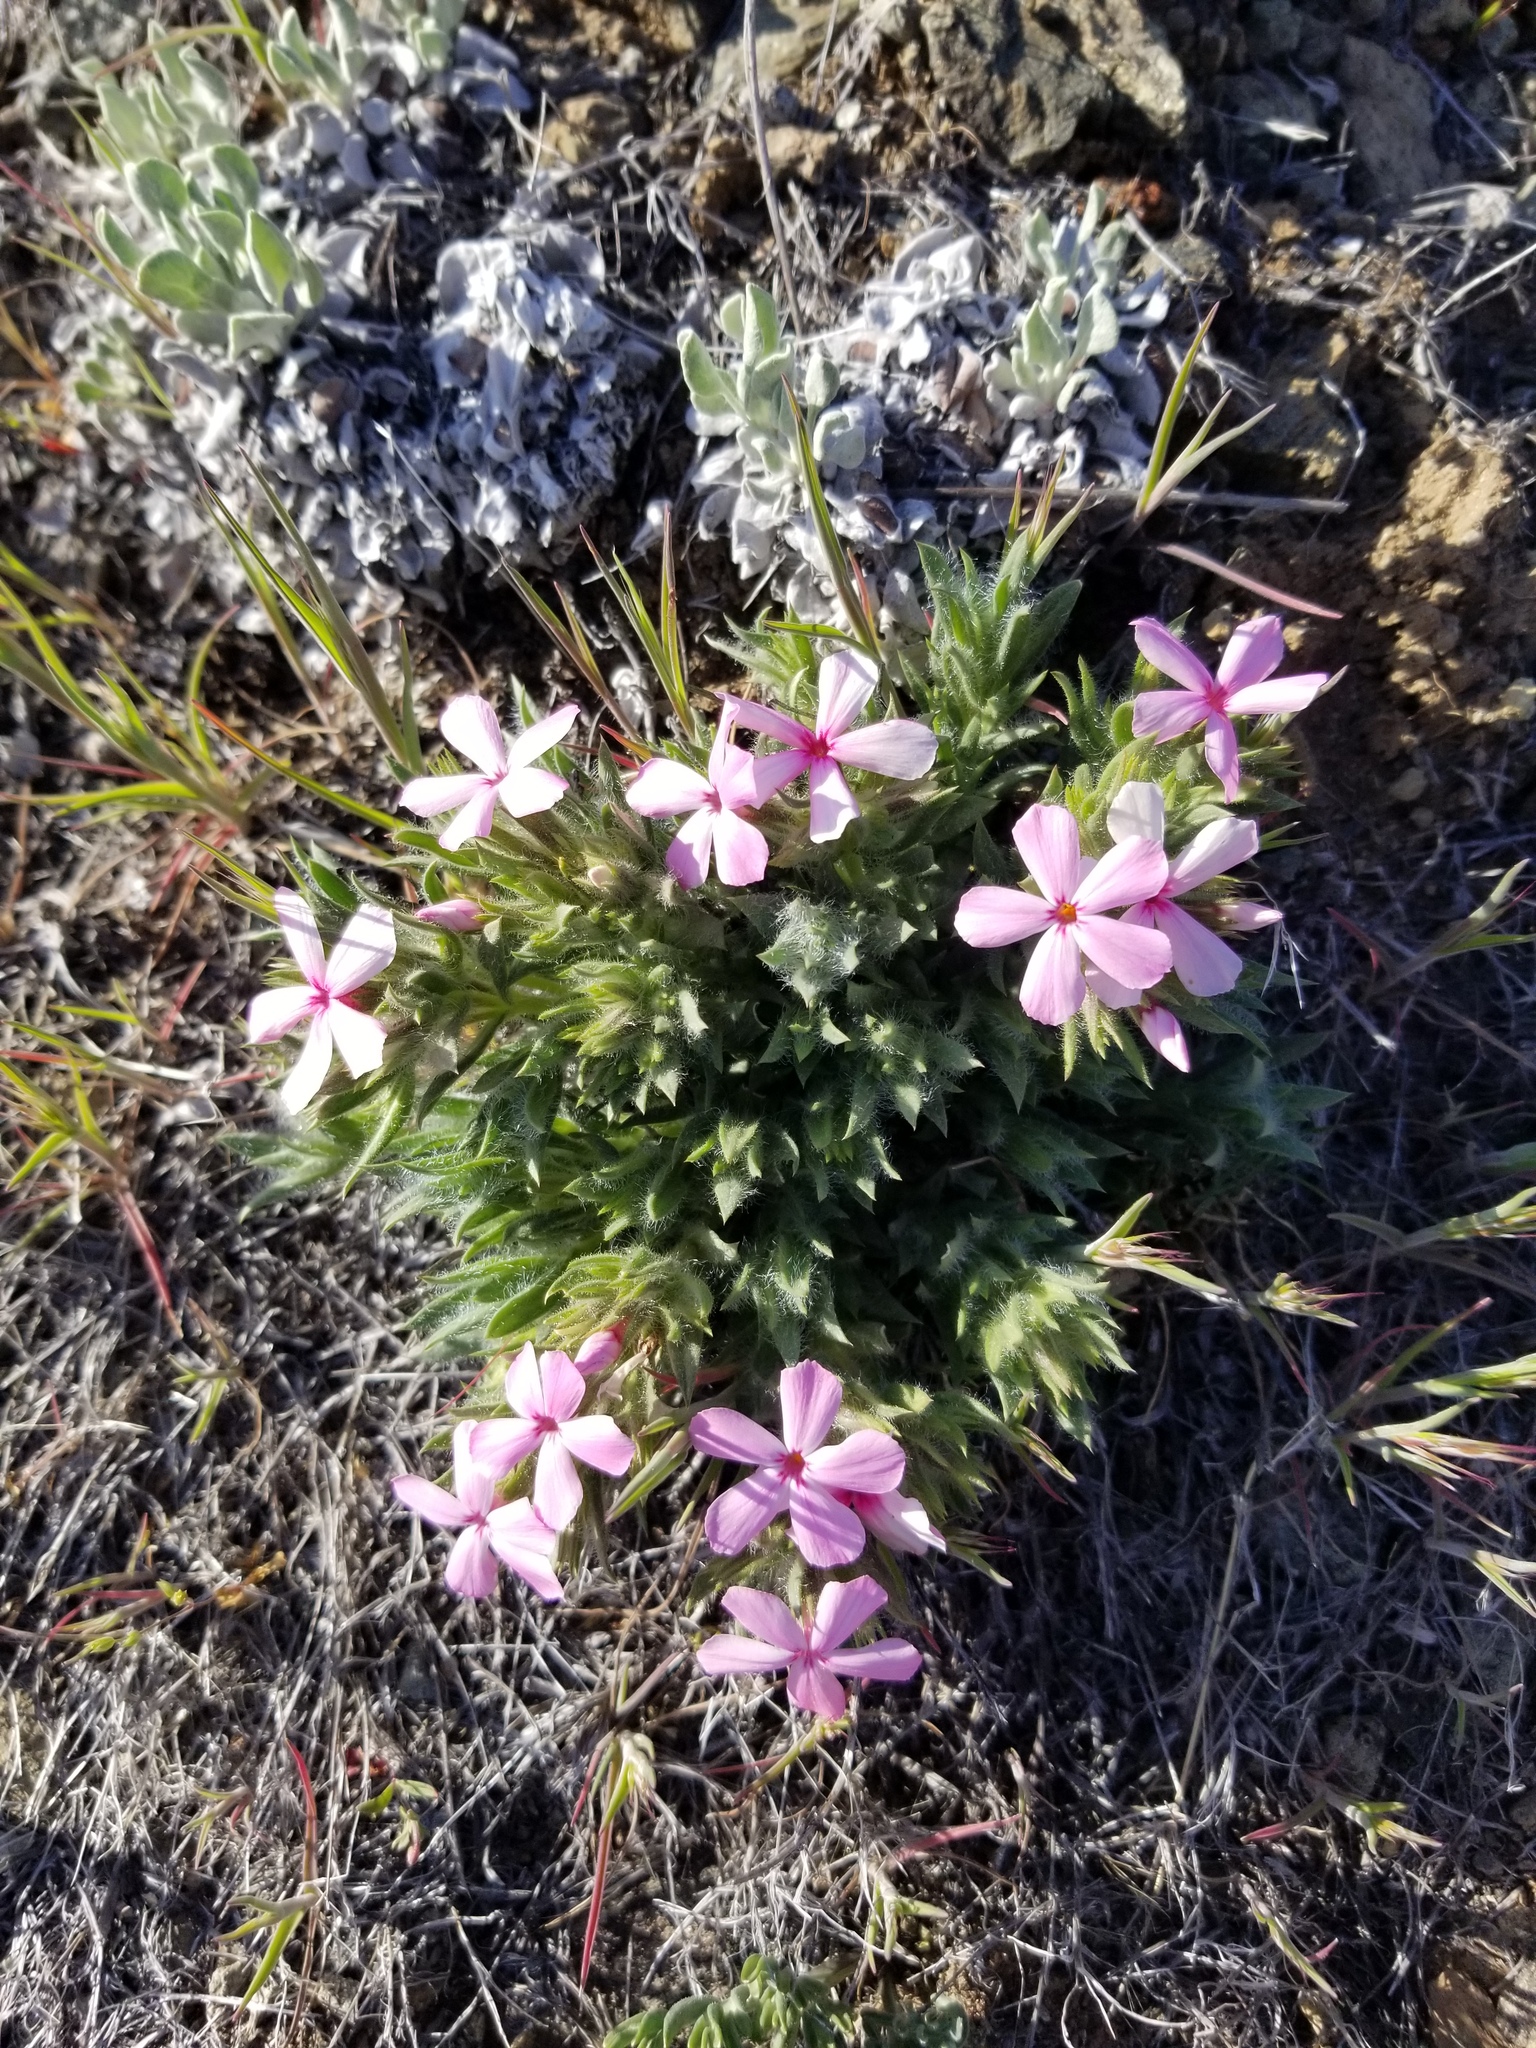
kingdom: Plantae
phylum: Tracheophyta
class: Magnoliopsida
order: Ericales
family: Polemoniaceae
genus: Phlox
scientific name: Phlox hirsuta
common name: Yreka phlox
